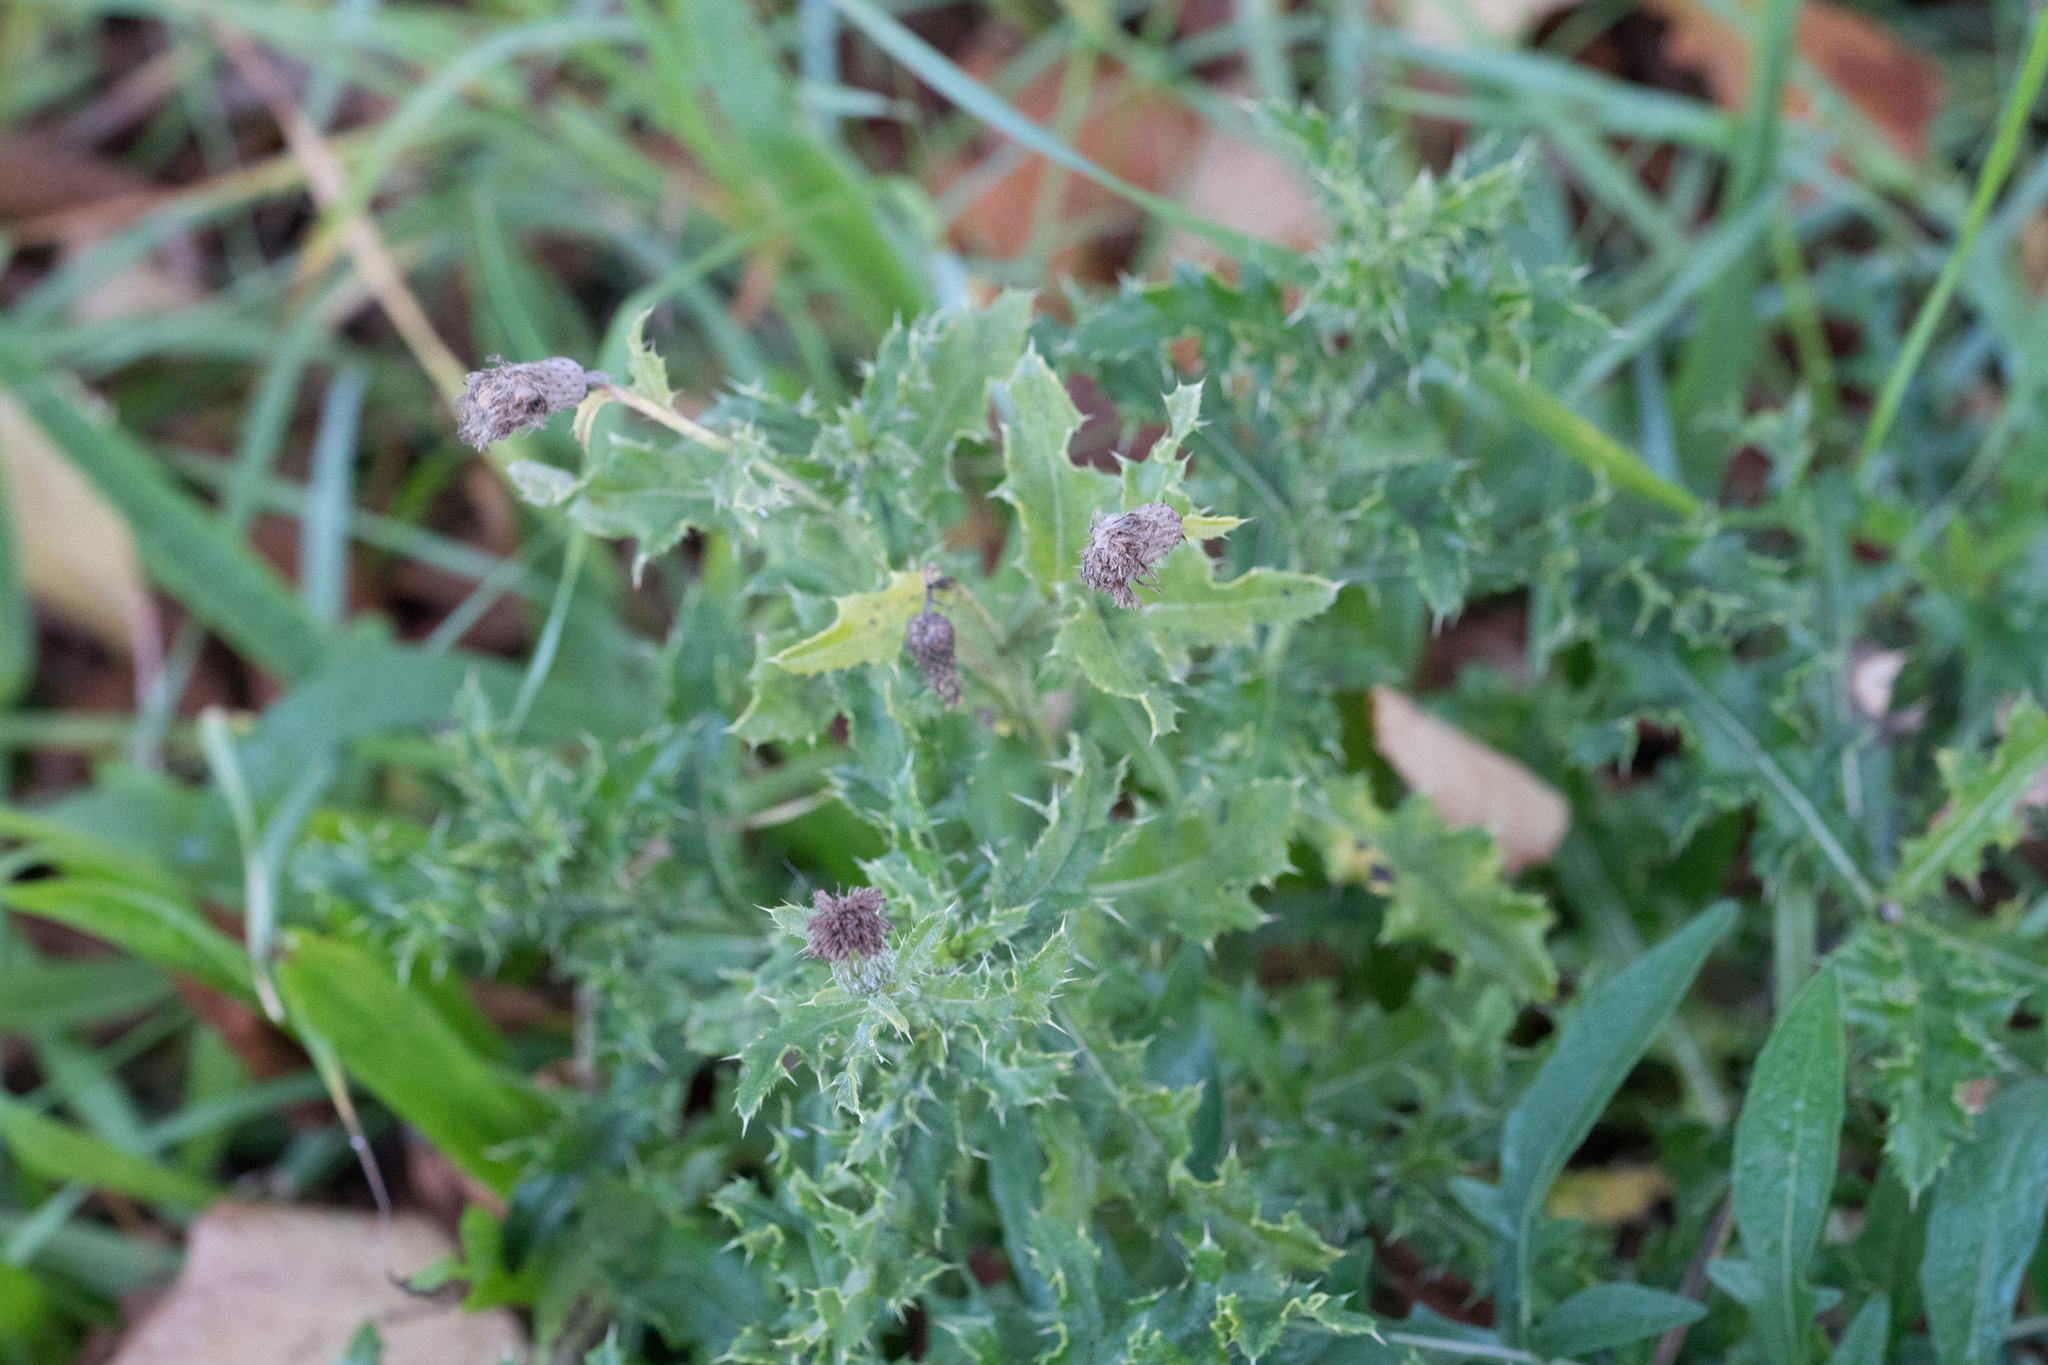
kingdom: Plantae
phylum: Tracheophyta
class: Magnoliopsida
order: Asterales
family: Asteraceae
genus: Cirsium
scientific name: Cirsium arvense
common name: Creeping thistle
